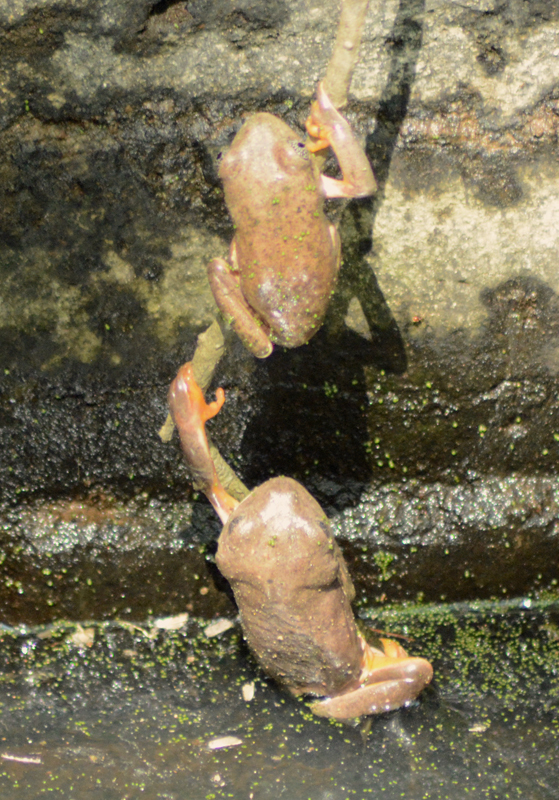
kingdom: Animalia
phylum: Chordata
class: Amphibia
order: Anura
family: Phyllomedusidae
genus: Agalychnis
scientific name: Agalychnis dacnicolor
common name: Mexican giant tree frog
